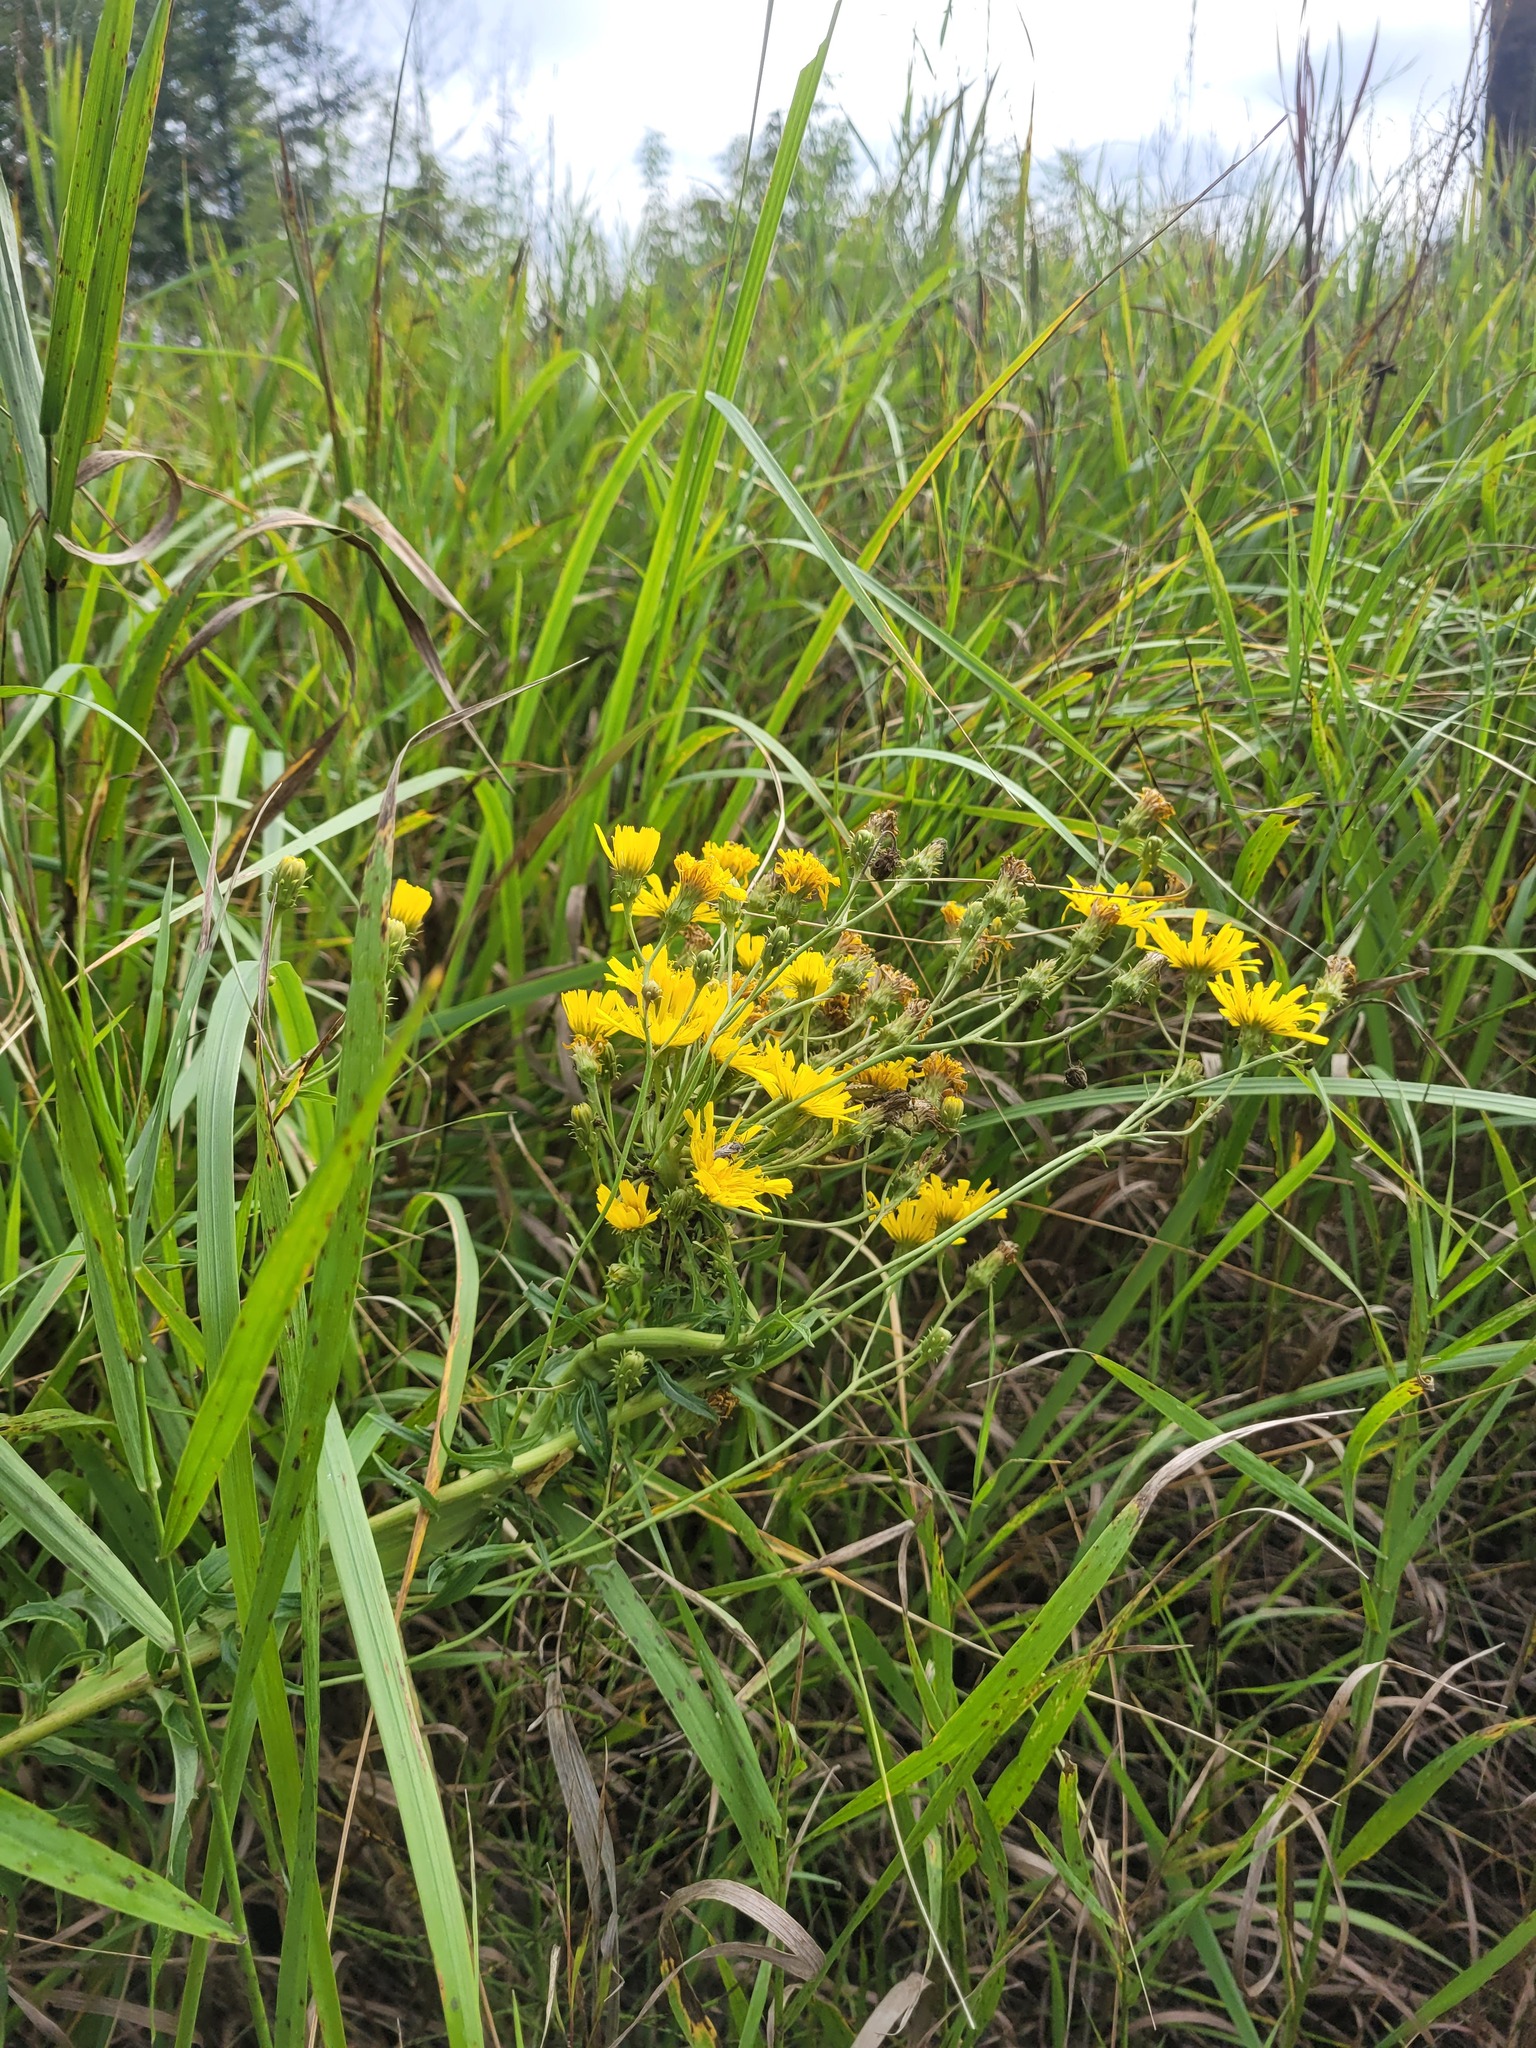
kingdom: Plantae
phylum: Tracheophyta
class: Magnoliopsida
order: Asterales
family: Asteraceae
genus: Hieracium
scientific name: Hieracium umbellatum
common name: Northern hawkweed
